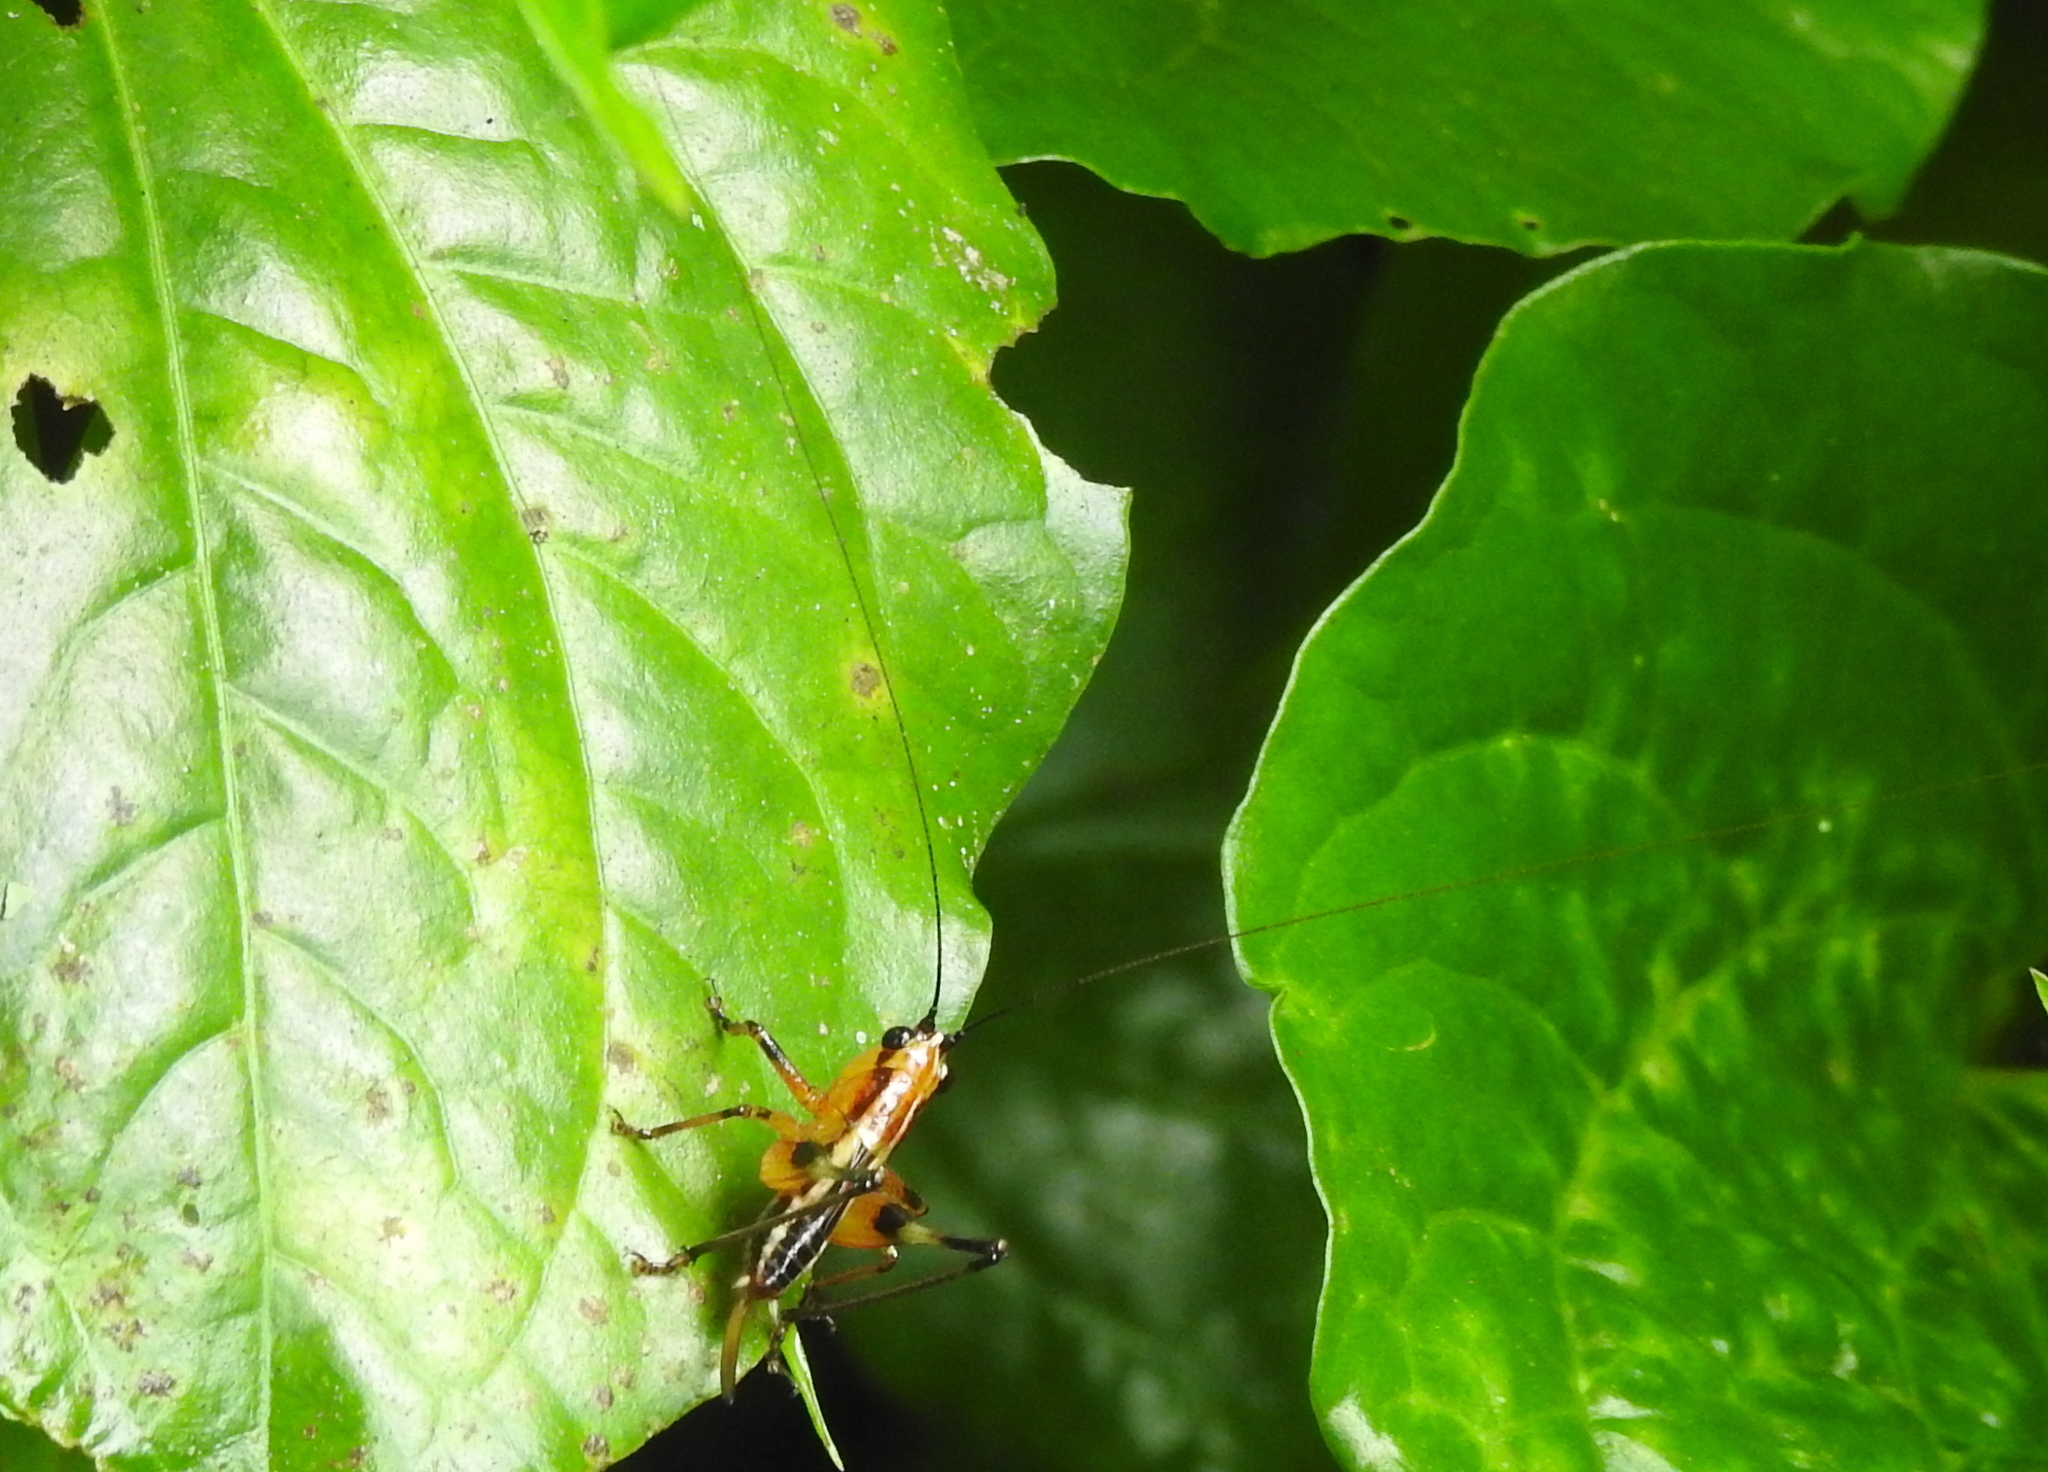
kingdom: Animalia
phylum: Arthropoda
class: Insecta
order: Orthoptera
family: Tettigoniidae
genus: Conocephalus
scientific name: Conocephalus melaenus
